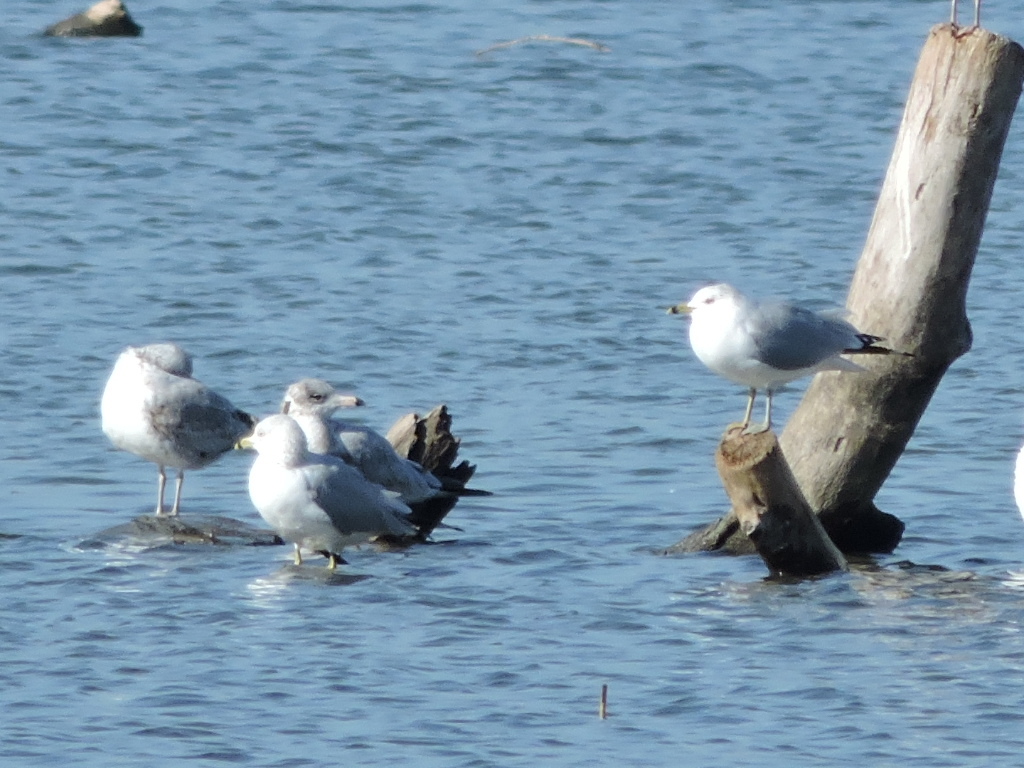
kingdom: Animalia
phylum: Chordata
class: Aves
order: Charadriiformes
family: Laridae
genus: Larus
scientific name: Larus delawarensis
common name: Ring-billed gull
